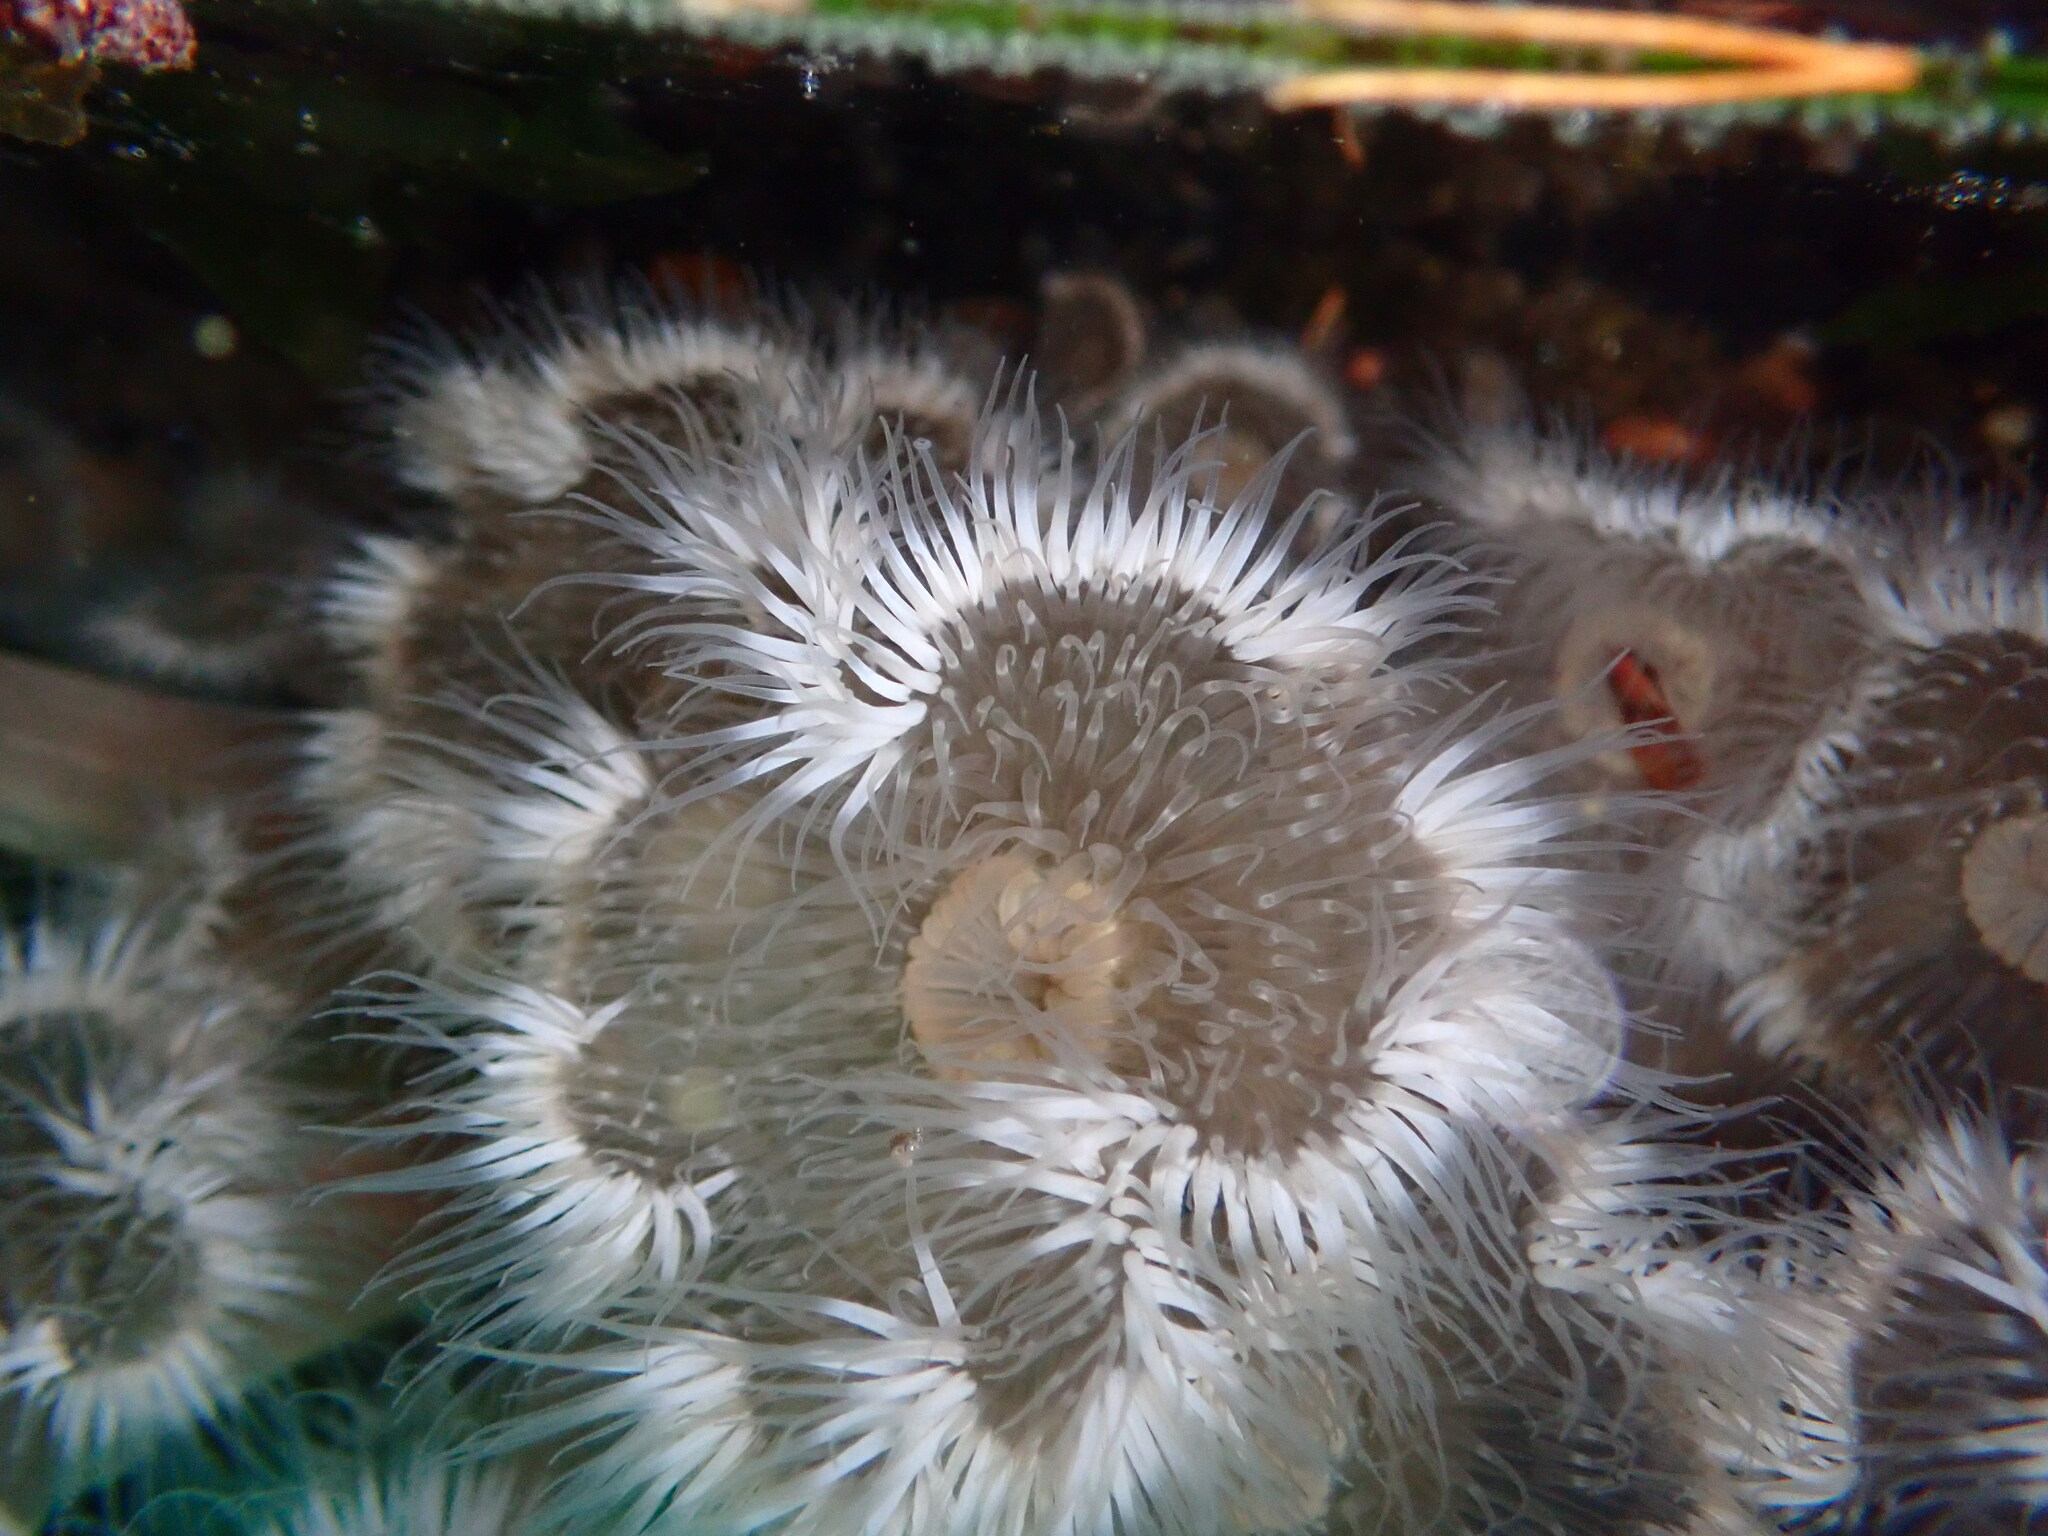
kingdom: Animalia
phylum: Cnidaria
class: Anthozoa
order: Actiniaria
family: Metridiidae
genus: Metridium
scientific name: Metridium senile
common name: Clonal plumose anemone
